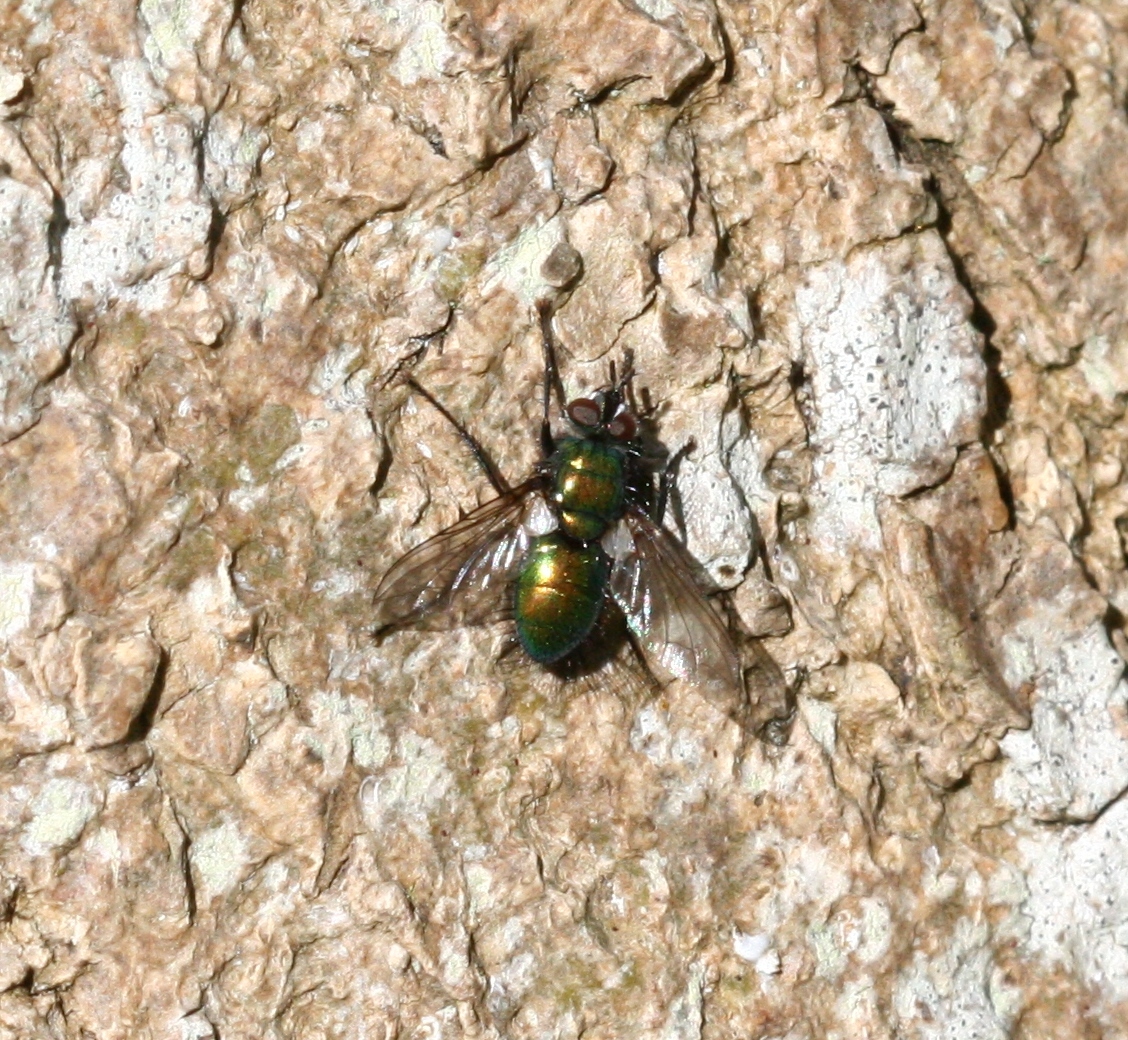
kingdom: Animalia
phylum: Arthropoda
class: Insecta
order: Diptera
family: Tachinidae
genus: Gymnocheta
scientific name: Gymnocheta viridis
